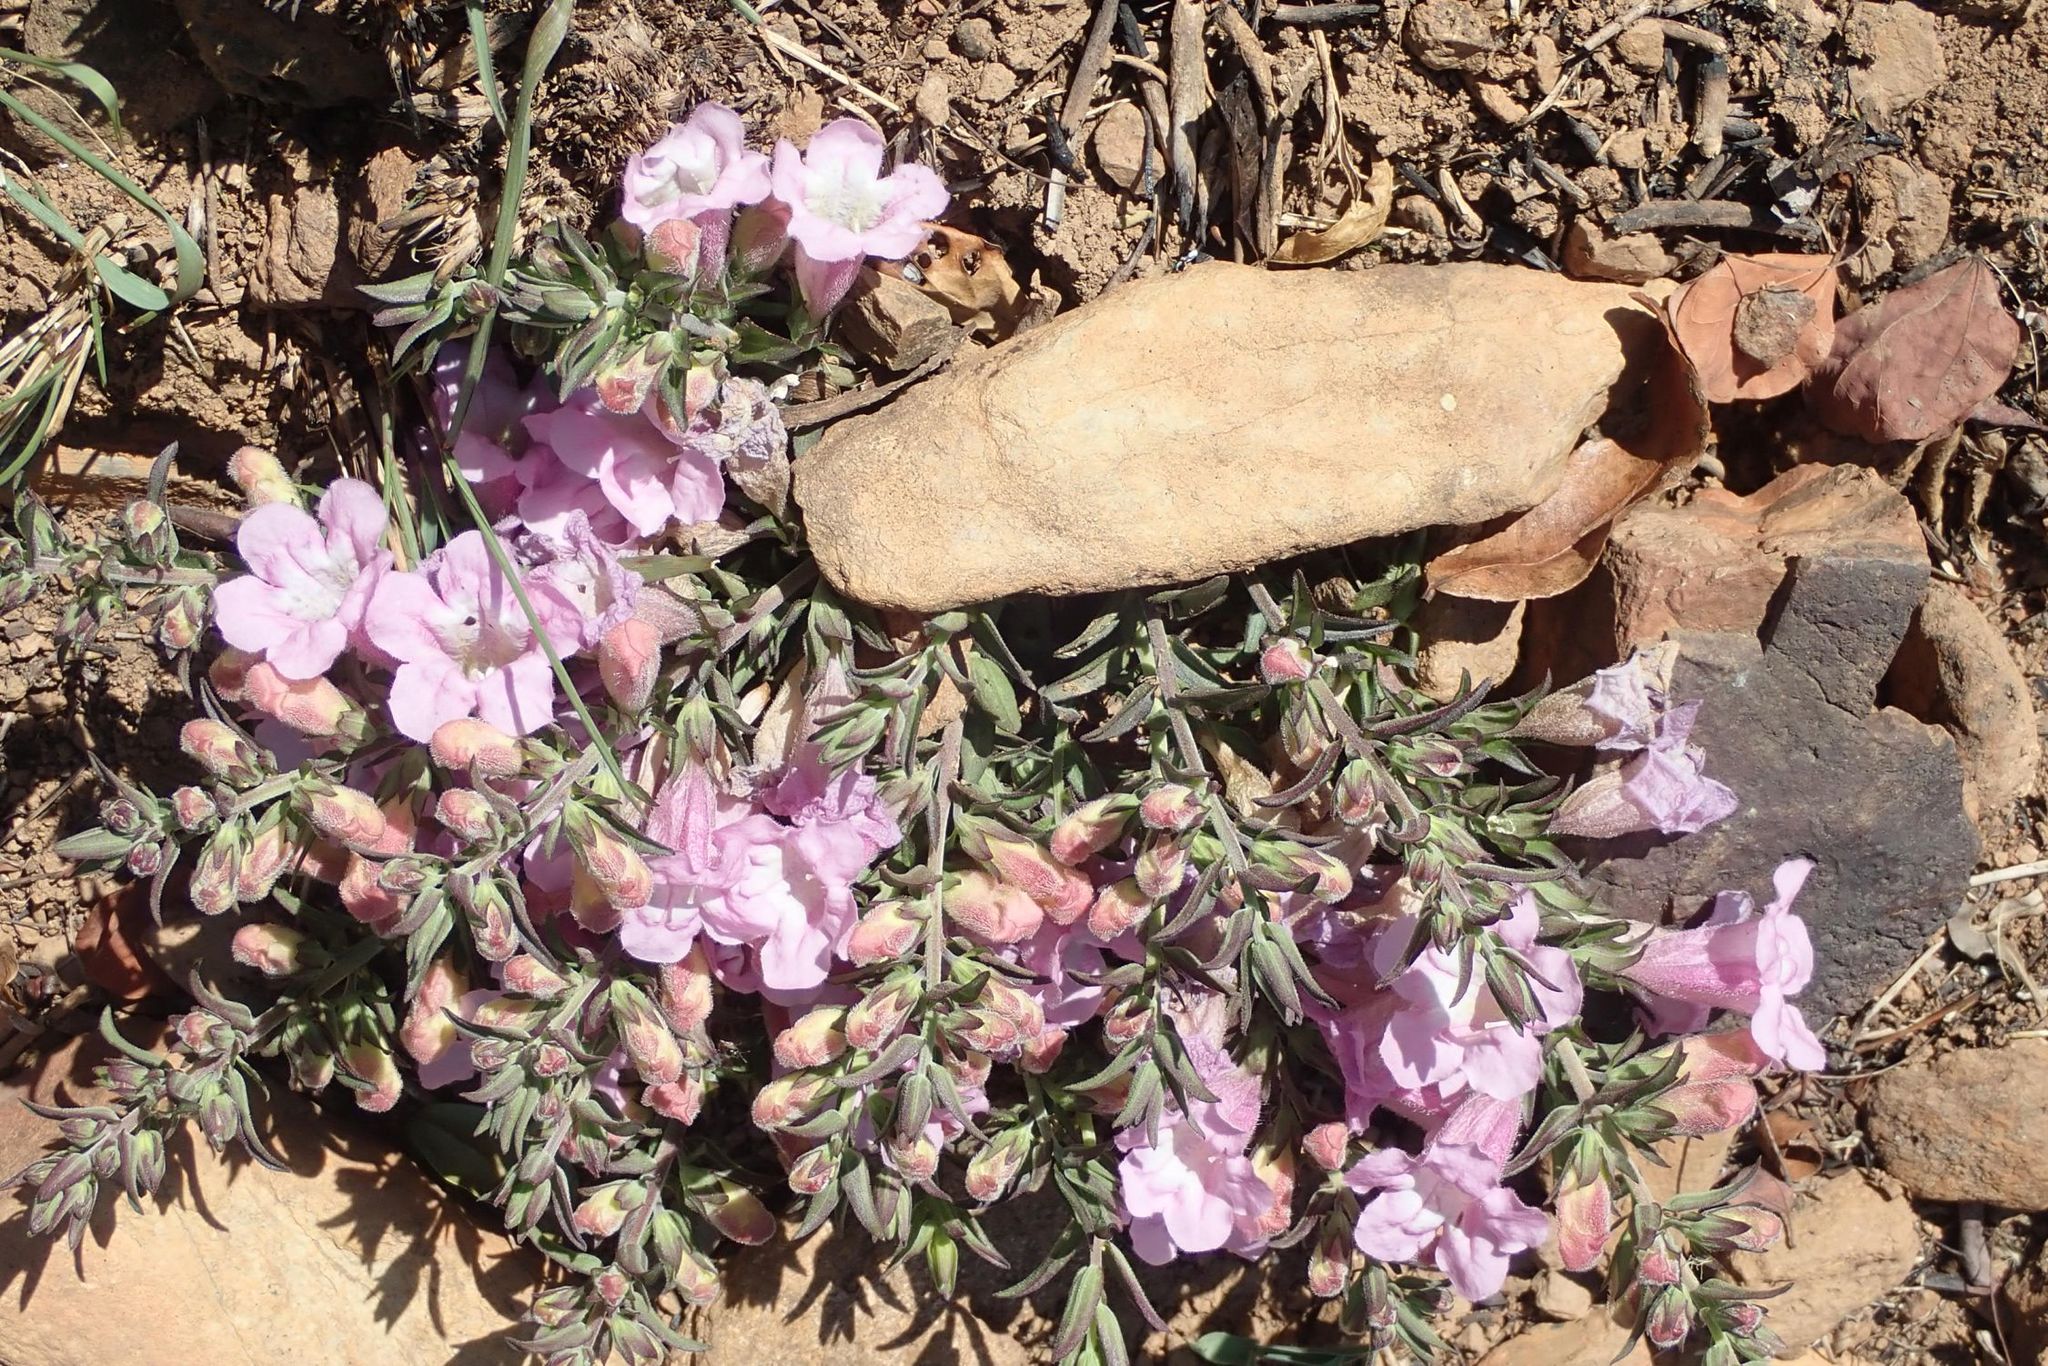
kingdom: Plantae
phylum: Tracheophyta
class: Magnoliopsida
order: Lamiales
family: Orobanchaceae
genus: Graderia
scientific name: Graderia scabra
